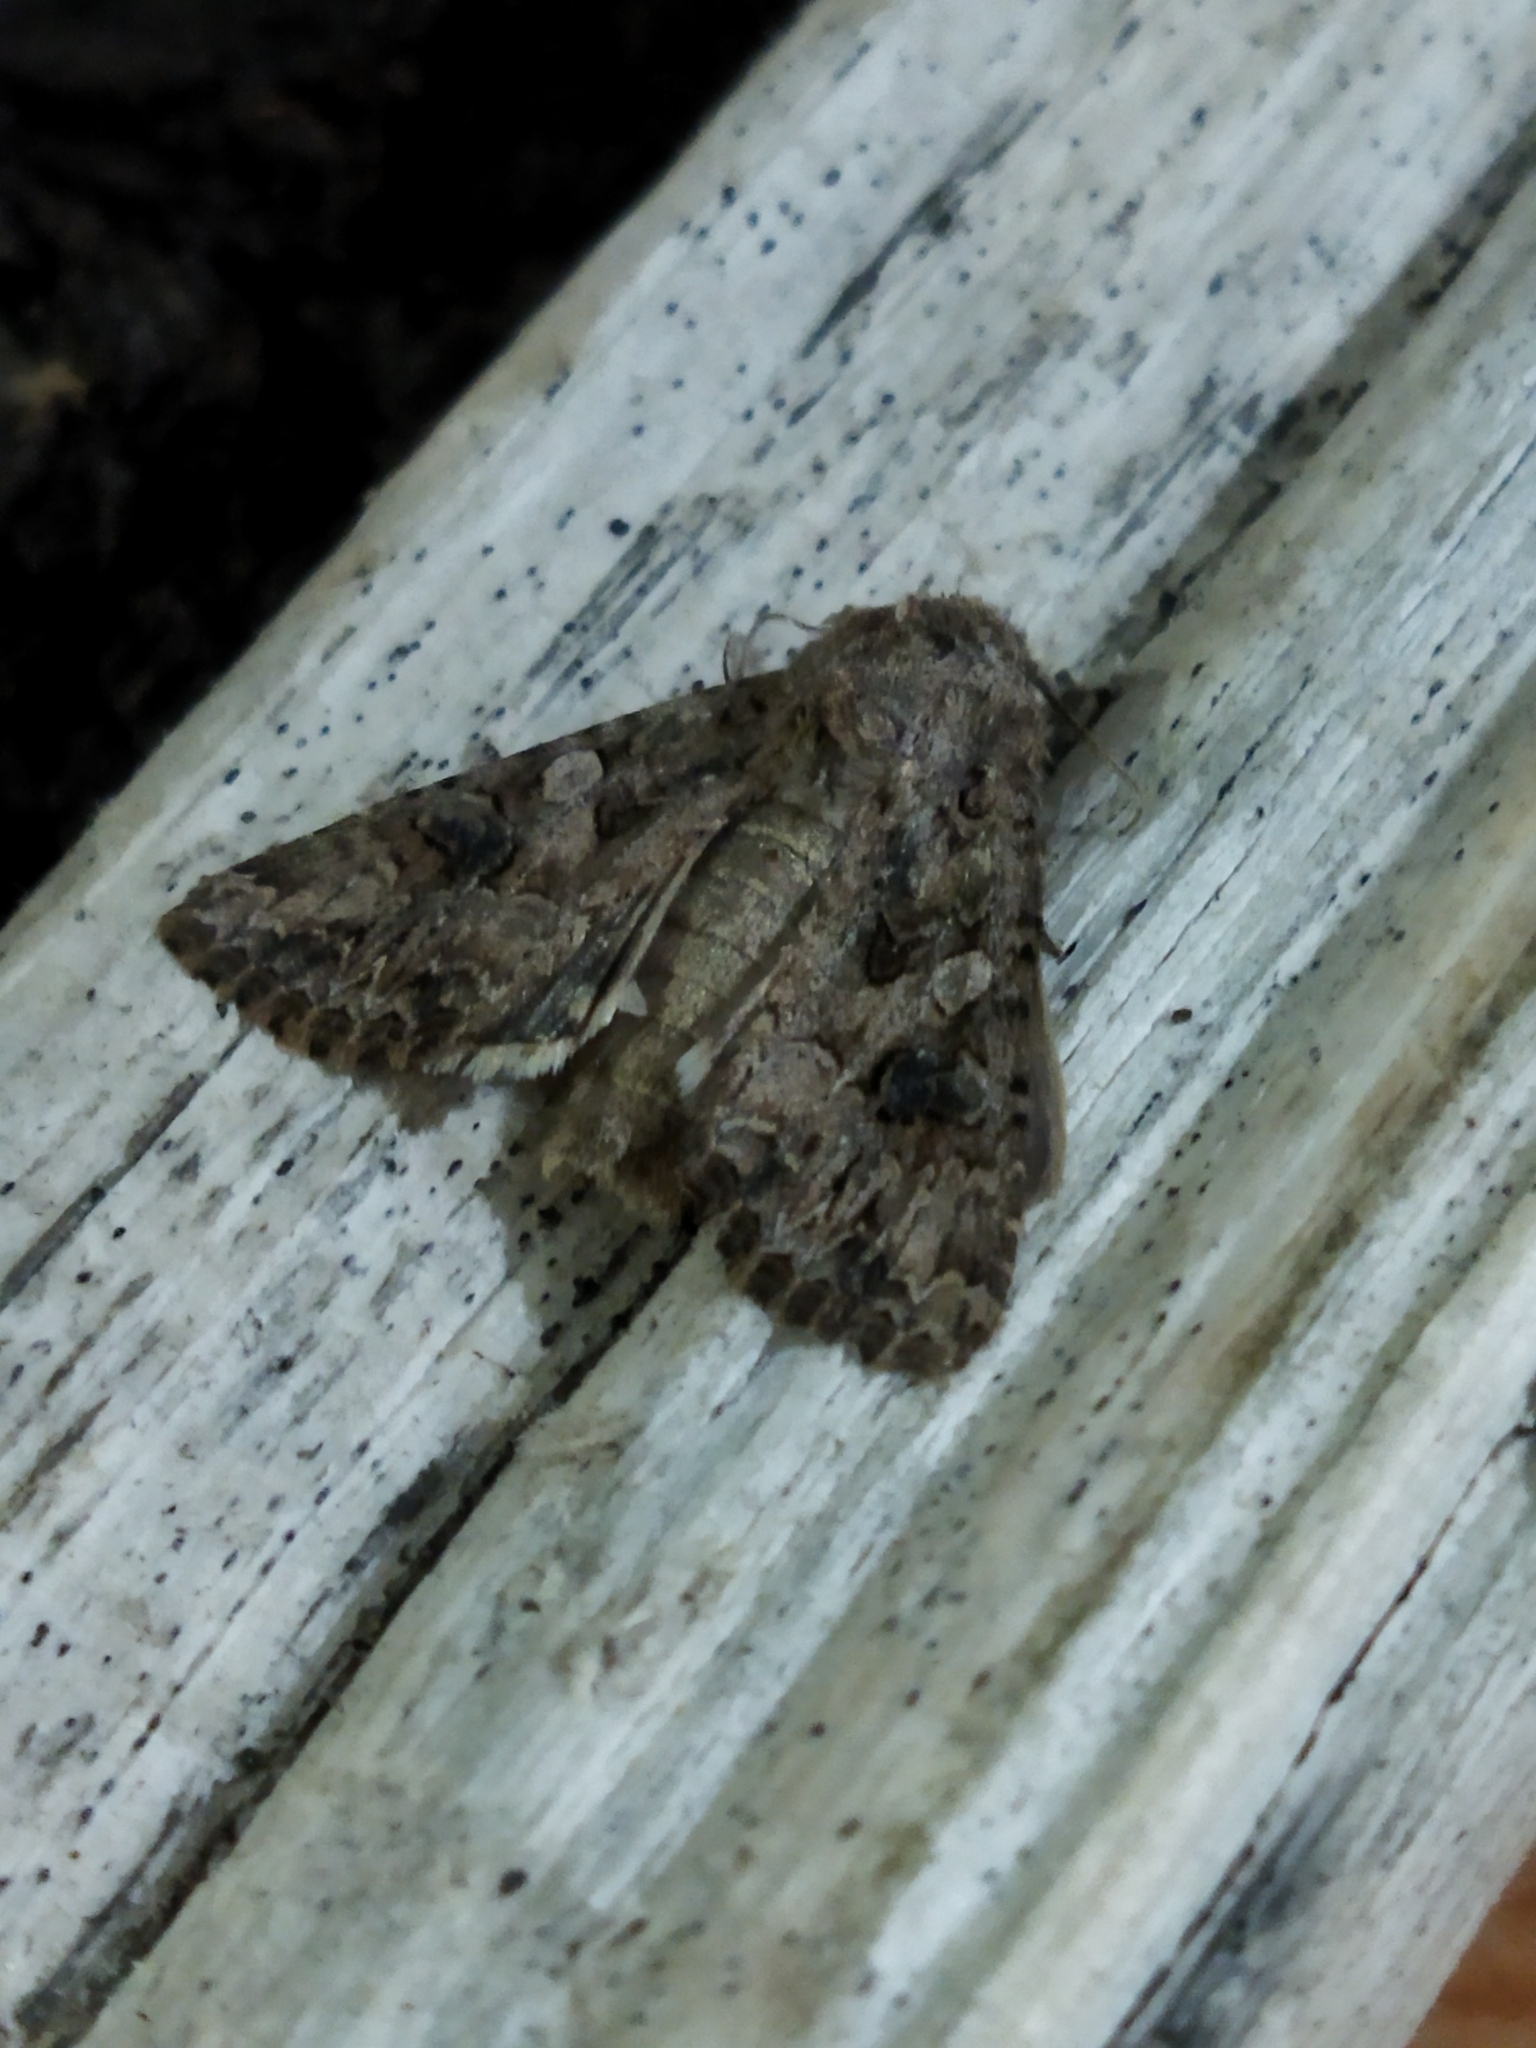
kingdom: Animalia
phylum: Arthropoda
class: Insecta
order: Lepidoptera
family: Noctuidae
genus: Anarta
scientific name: Anarta pugnax
